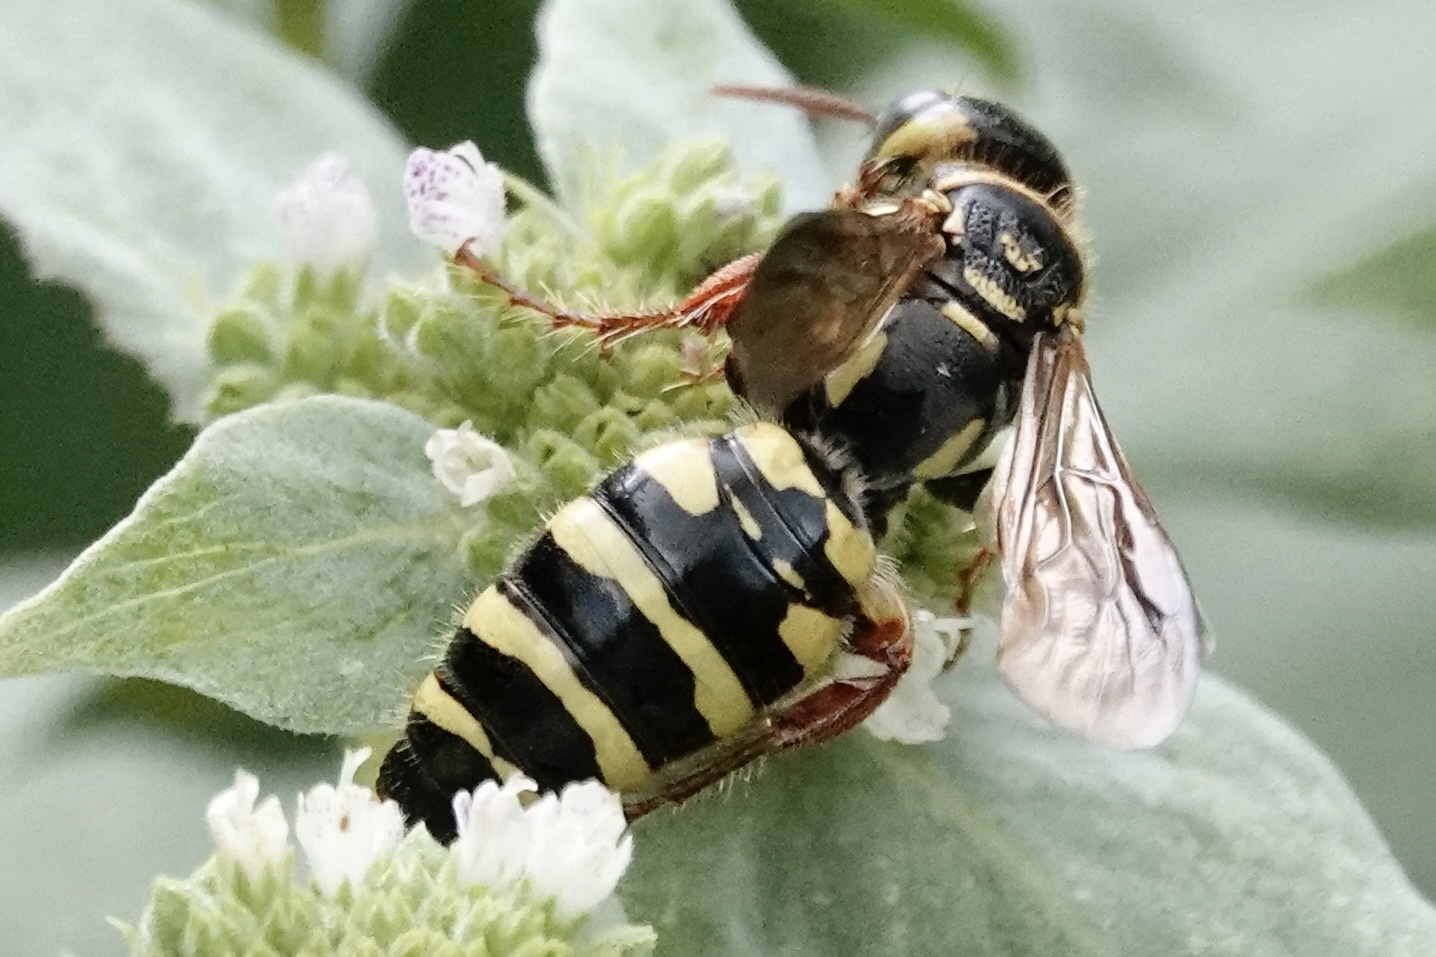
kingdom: Animalia
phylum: Arthropoda
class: Insecta
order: Hymenoptera
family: Tiphiidae
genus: Myzinum
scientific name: Myzinum quinquecinctum
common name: Five-banded thynnid wasp
